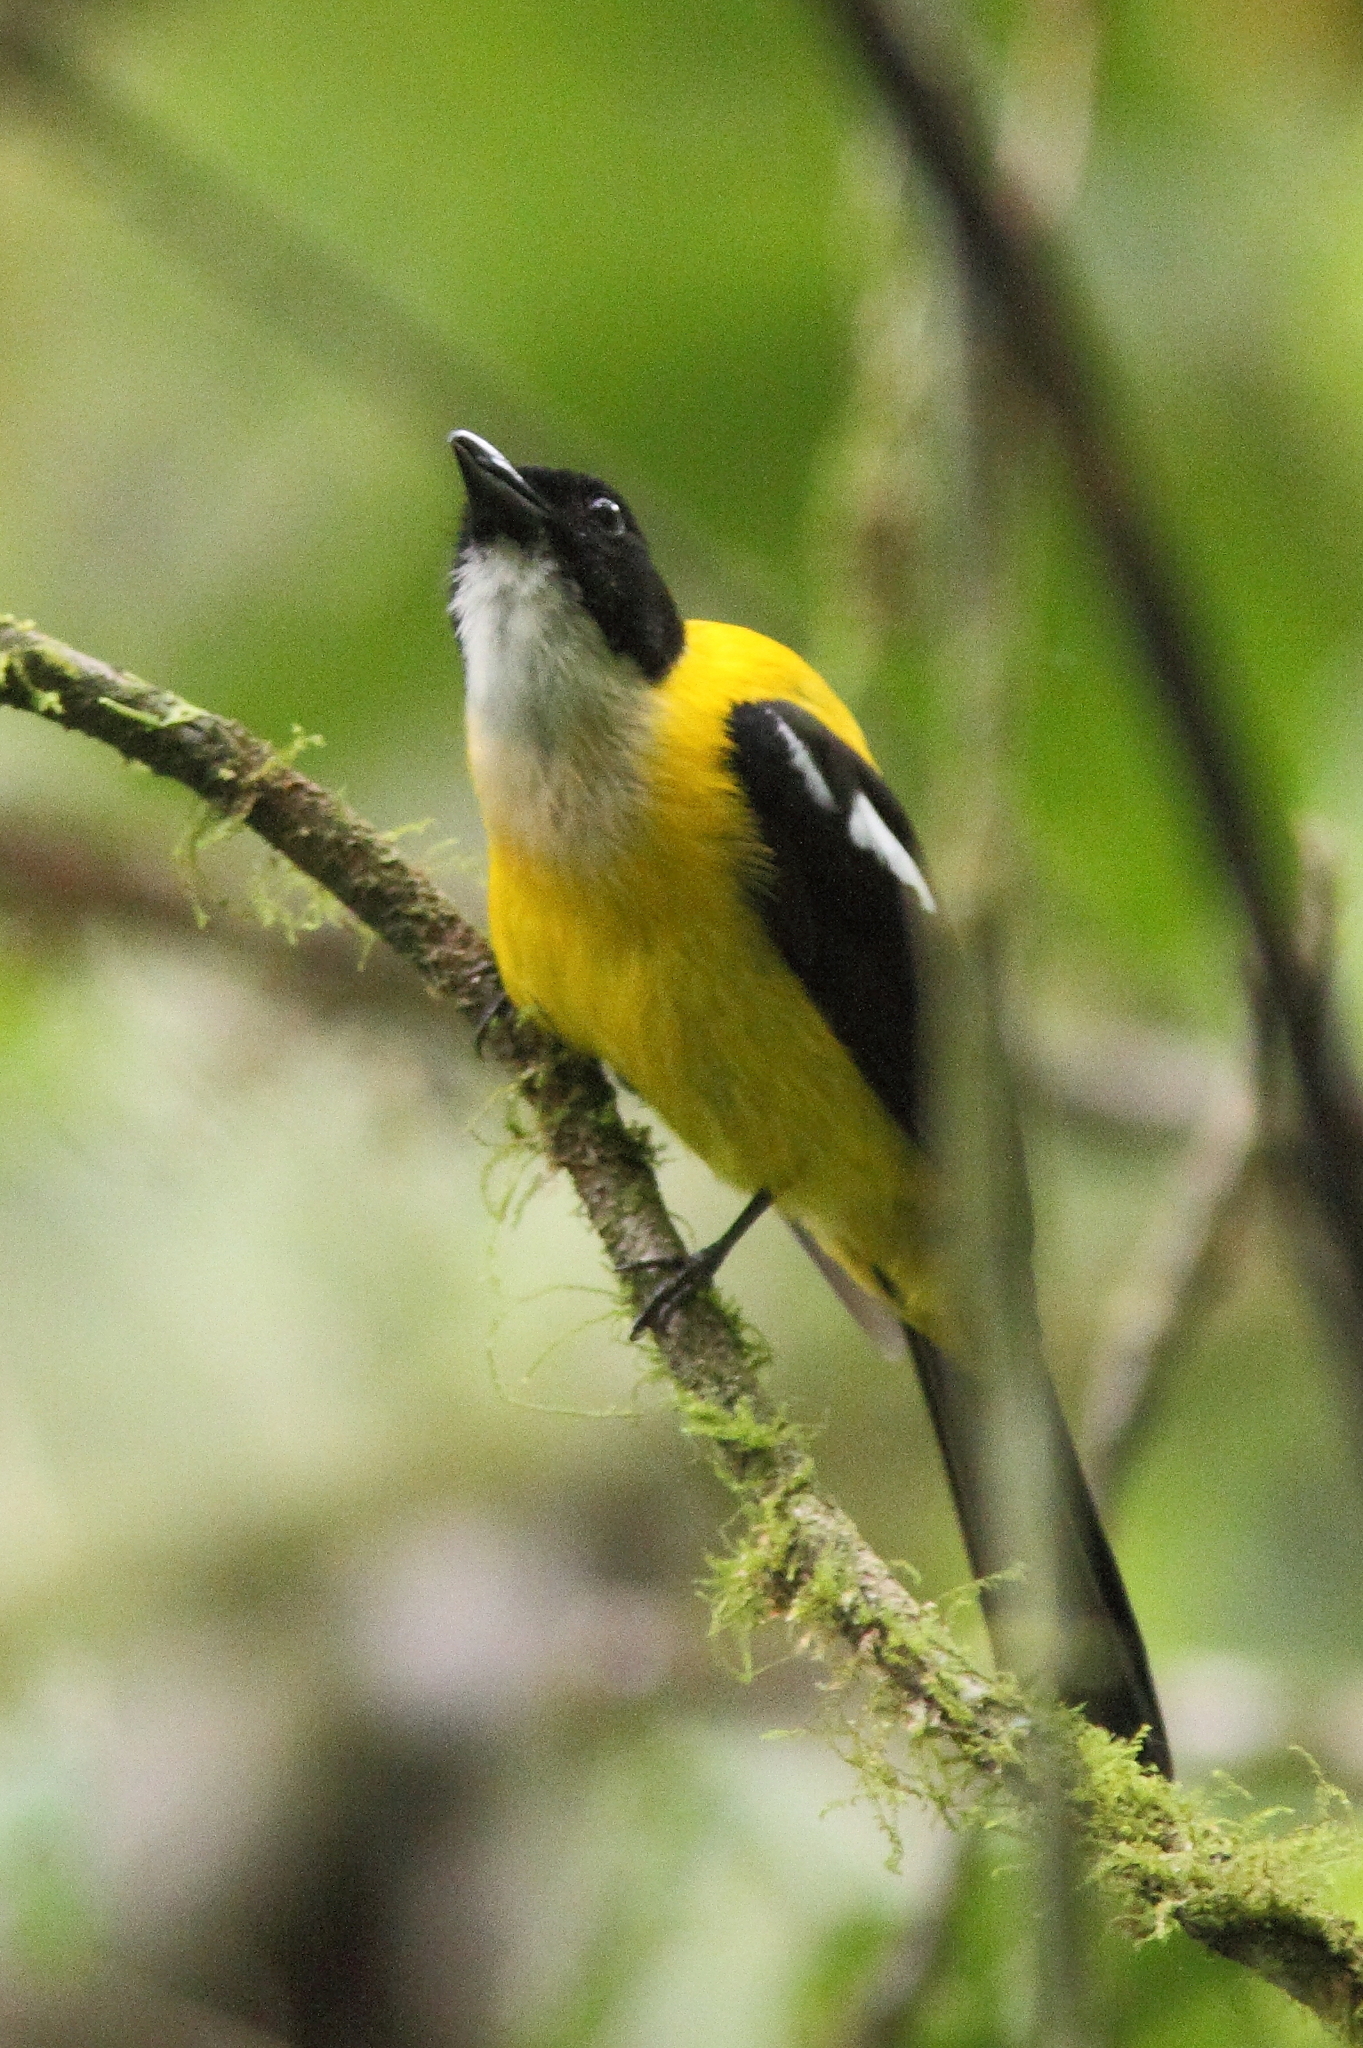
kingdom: Animalia
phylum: Chordata
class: Aves
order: Passeriformes
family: Thraupidae
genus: Lanio
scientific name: Lanio leucothorax
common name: White-throated shrike-tanager
